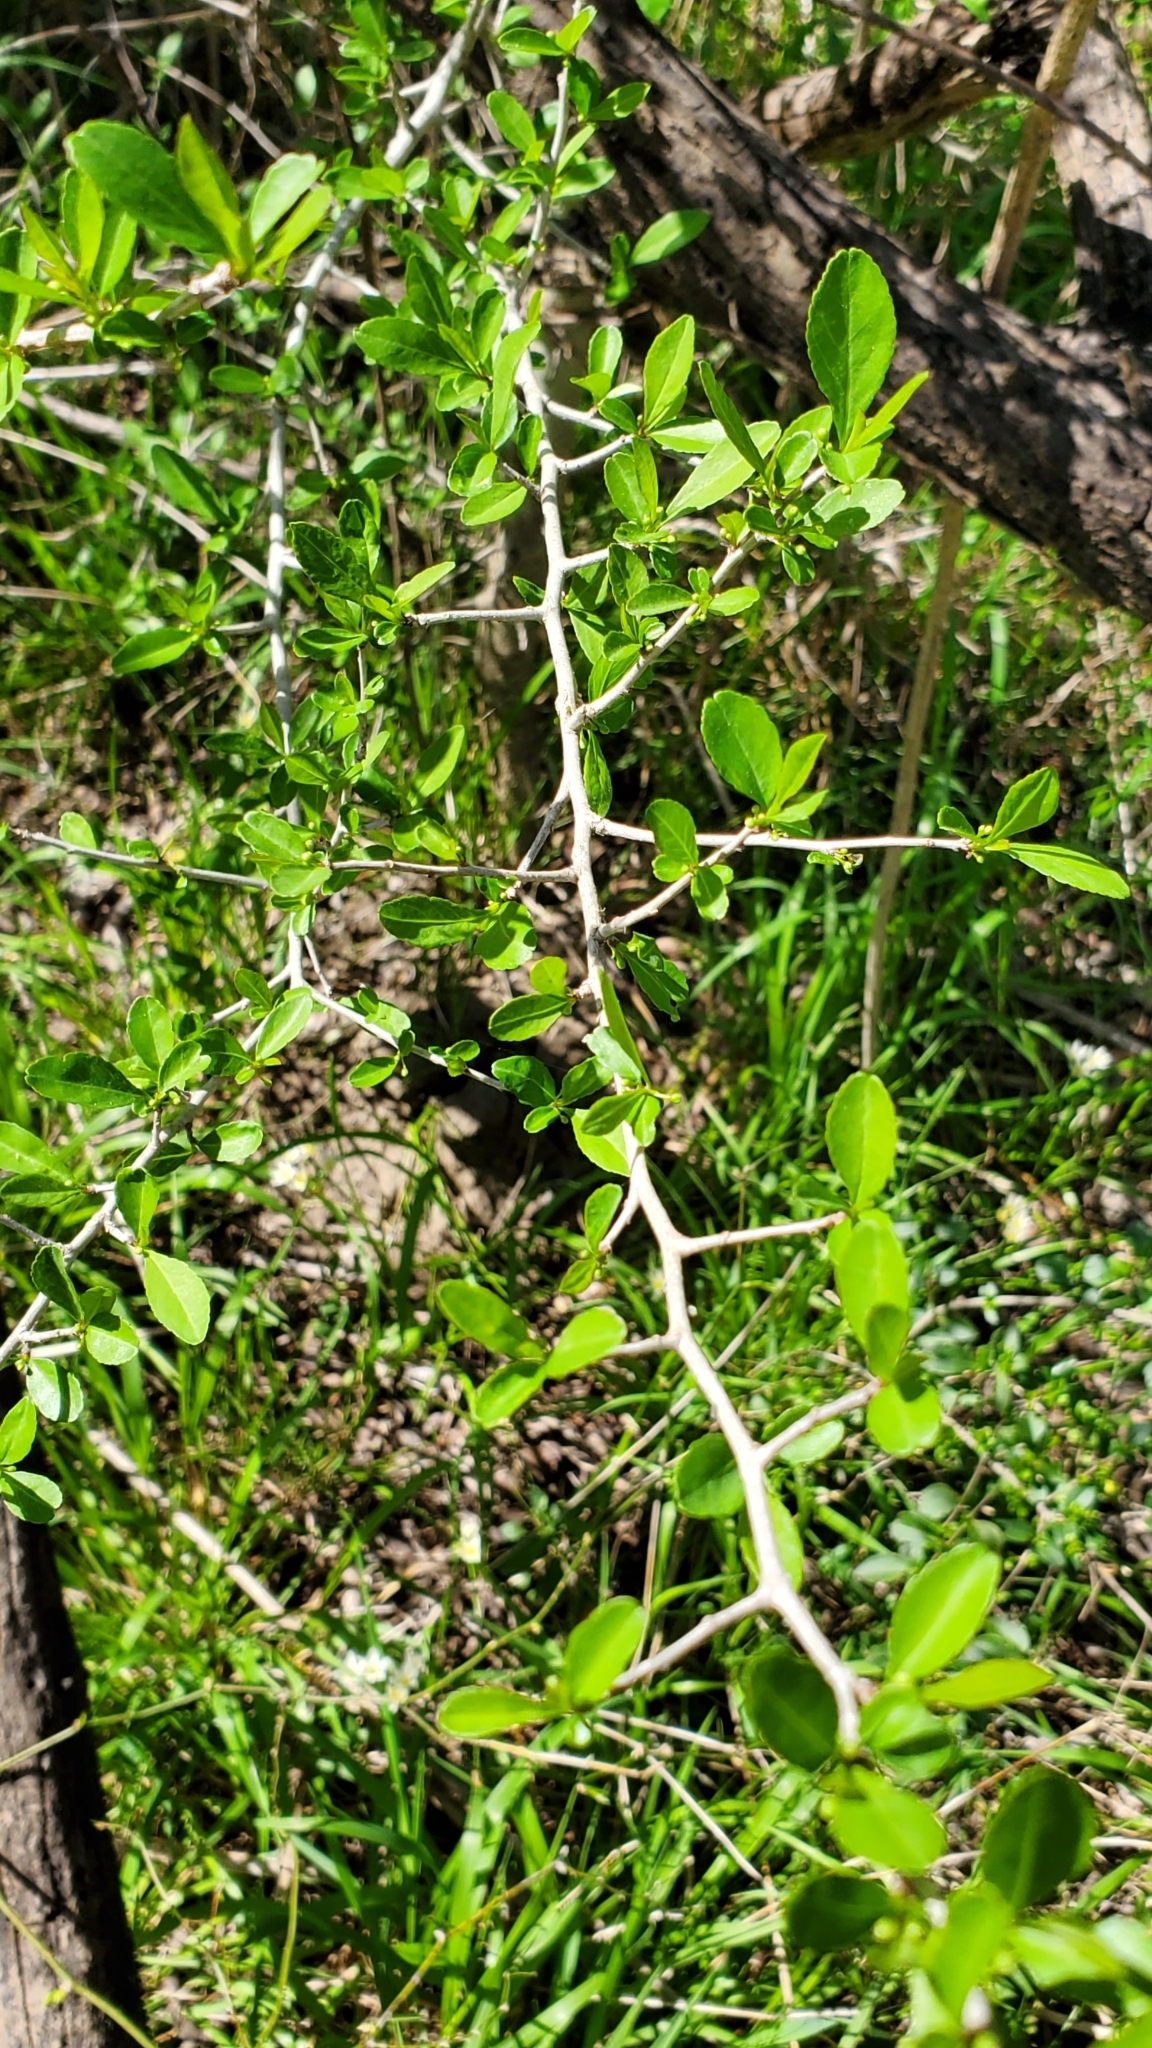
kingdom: Plantae
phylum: Tracheophyta
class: Magnoliopsida
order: Aquifoliales
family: Aquifoliaceae
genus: Ilex
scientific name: Ilex vomitoria
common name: Yaupon holly
